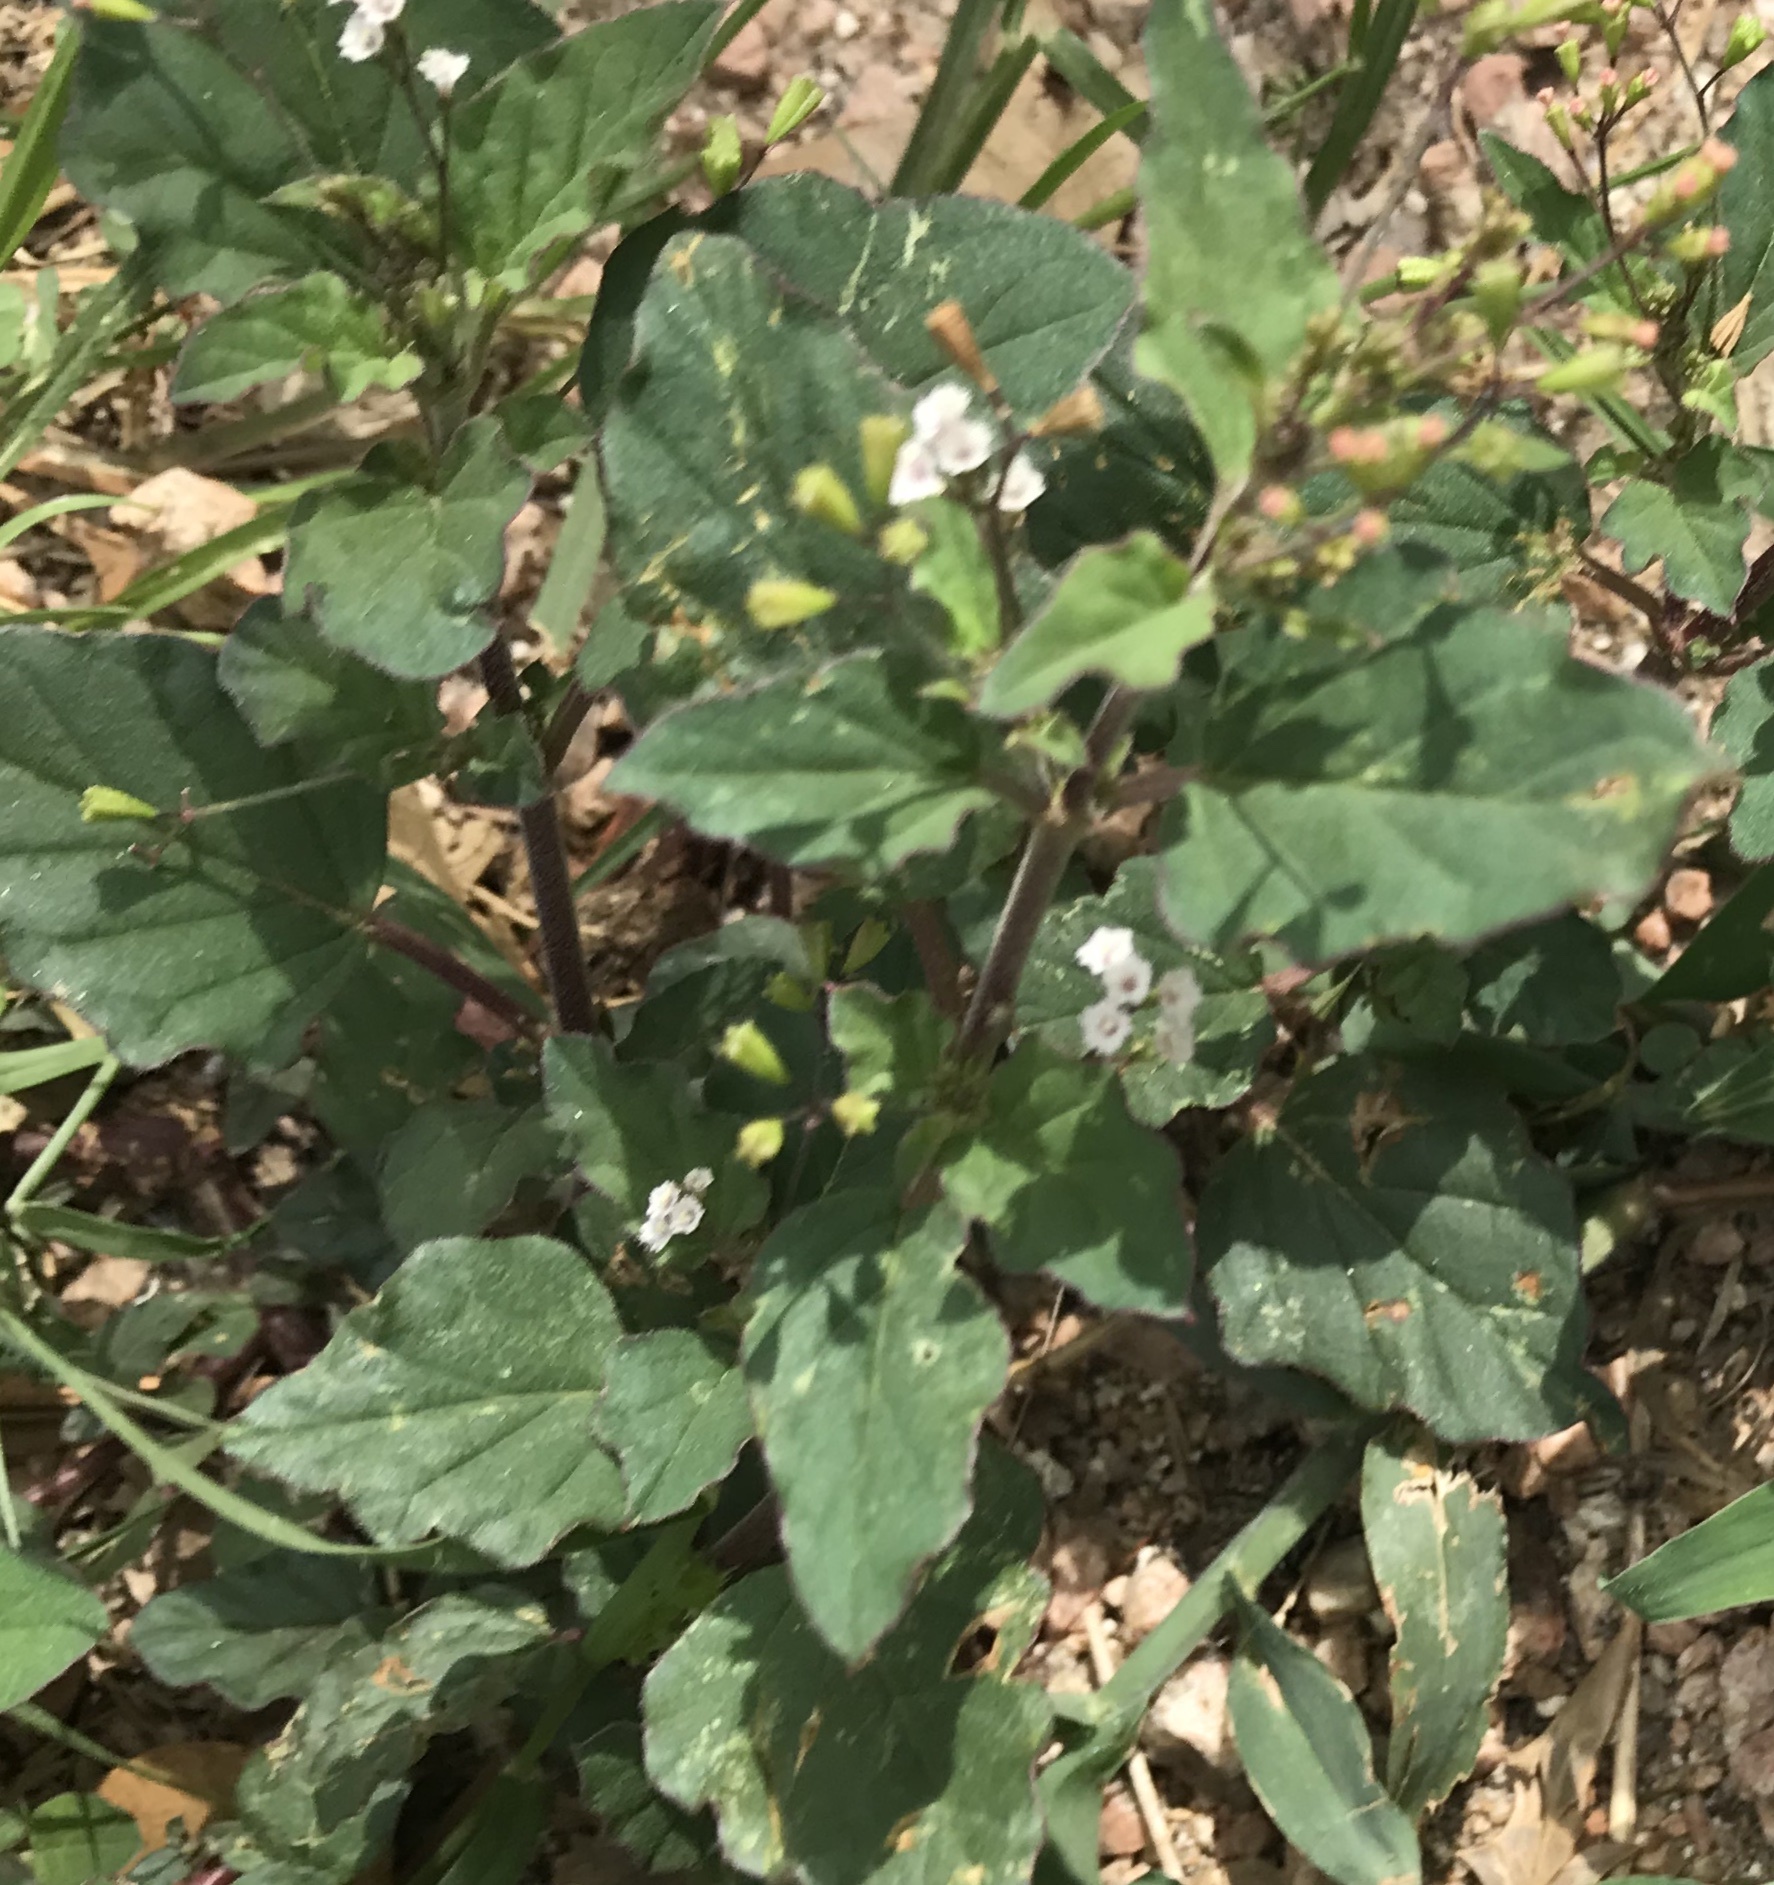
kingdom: Plantae
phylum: Tracheophyta
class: Magnoliopsida
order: Caryophyllales
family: Nyctaginaceae
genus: Boerhavia
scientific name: Boerhavia erecta
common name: Erect spiderling
